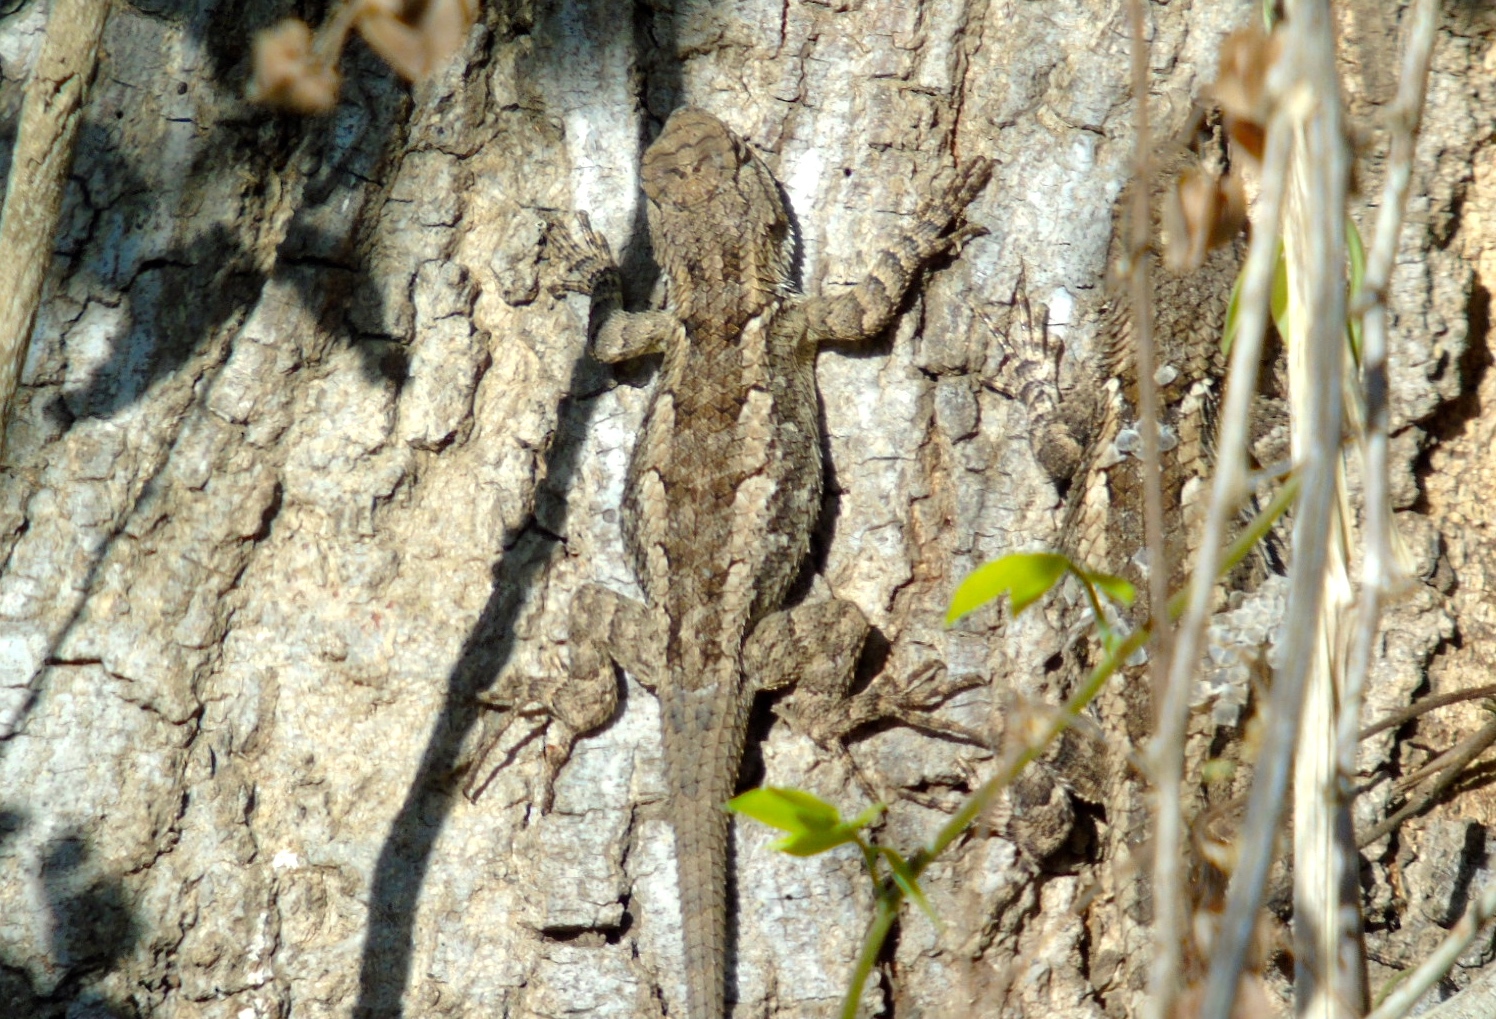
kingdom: Animalia
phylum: Chordata
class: Squamata
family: Phrynosomatidae
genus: Sceloporus
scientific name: Sceloporus clarkii
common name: Clark's spiny lizard
